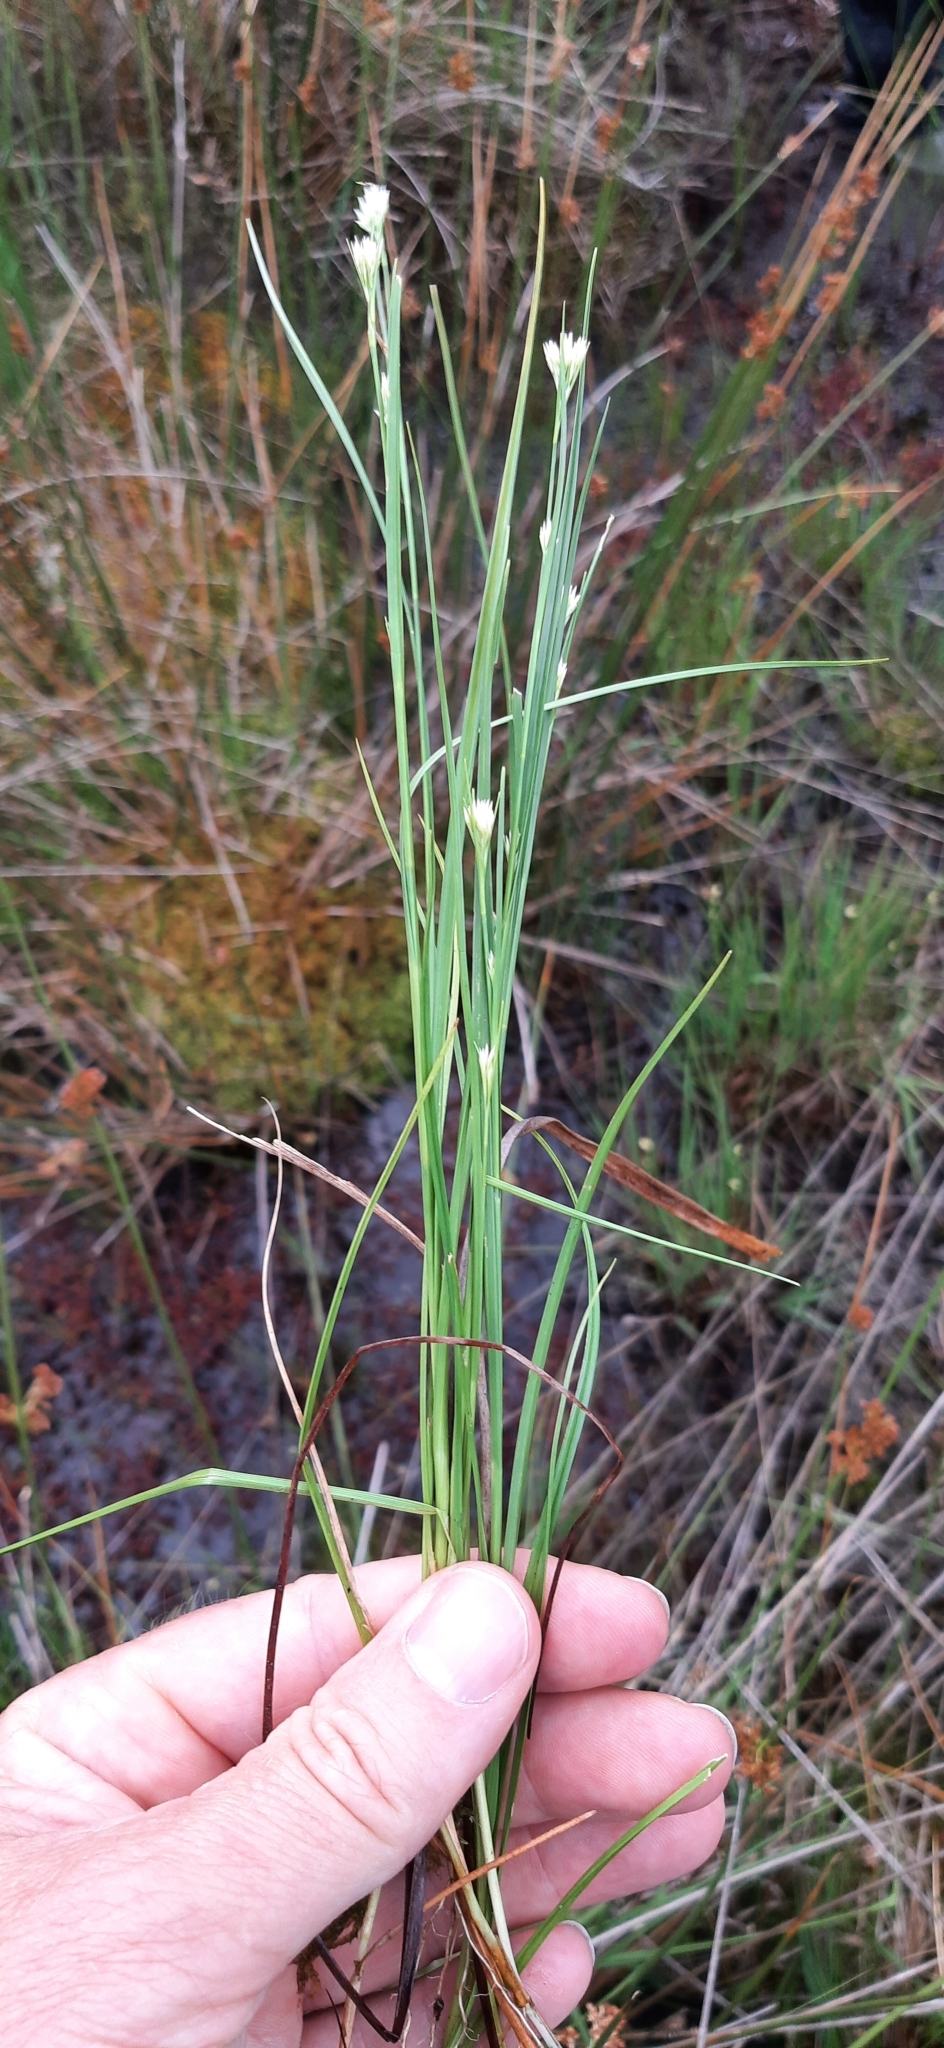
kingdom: Plantae
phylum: Tracheophyta
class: Liliopsida
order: Poales
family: Cyperaceae
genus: Rhynchospora
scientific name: Rhynchospora alba
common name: White beak-sedge
